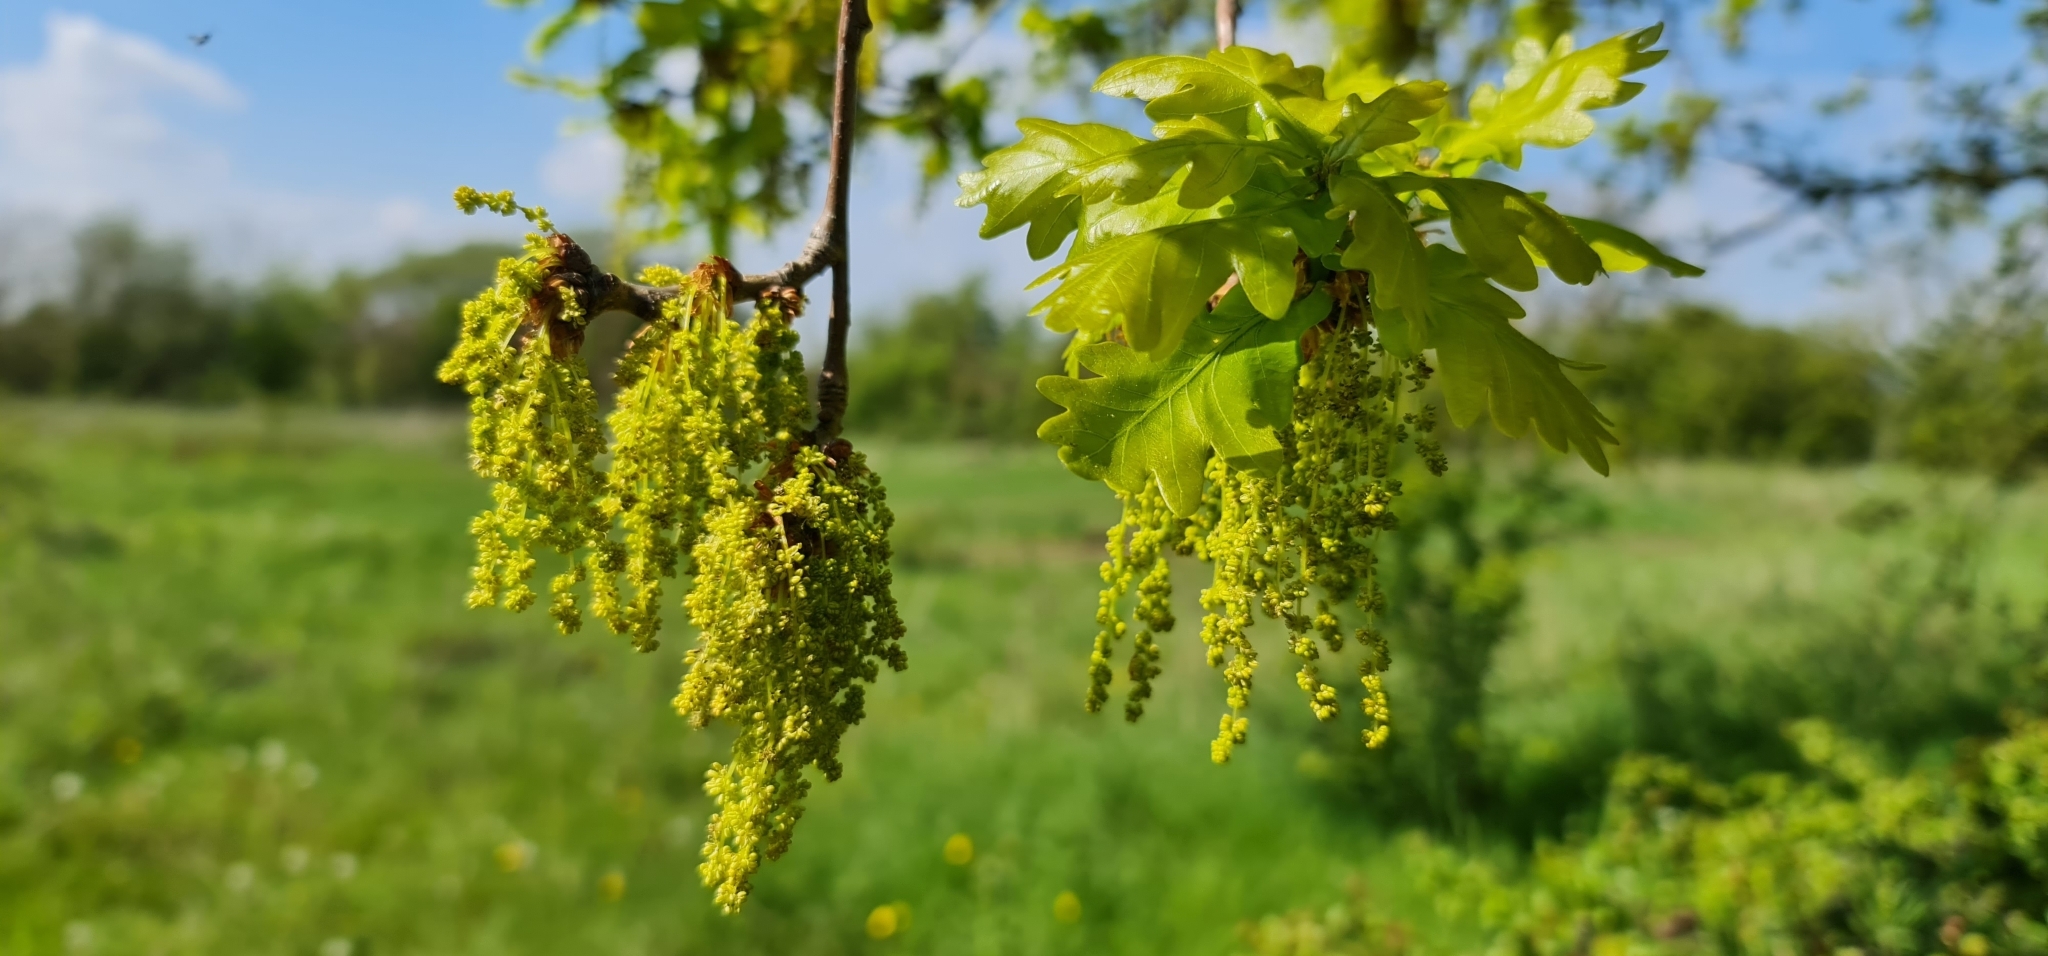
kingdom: Plantae
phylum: Tracheophyta
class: Magnoliopsida
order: Fagales
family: Fagaceae
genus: Quercus
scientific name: Quercus robur
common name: Pedunculate oak
